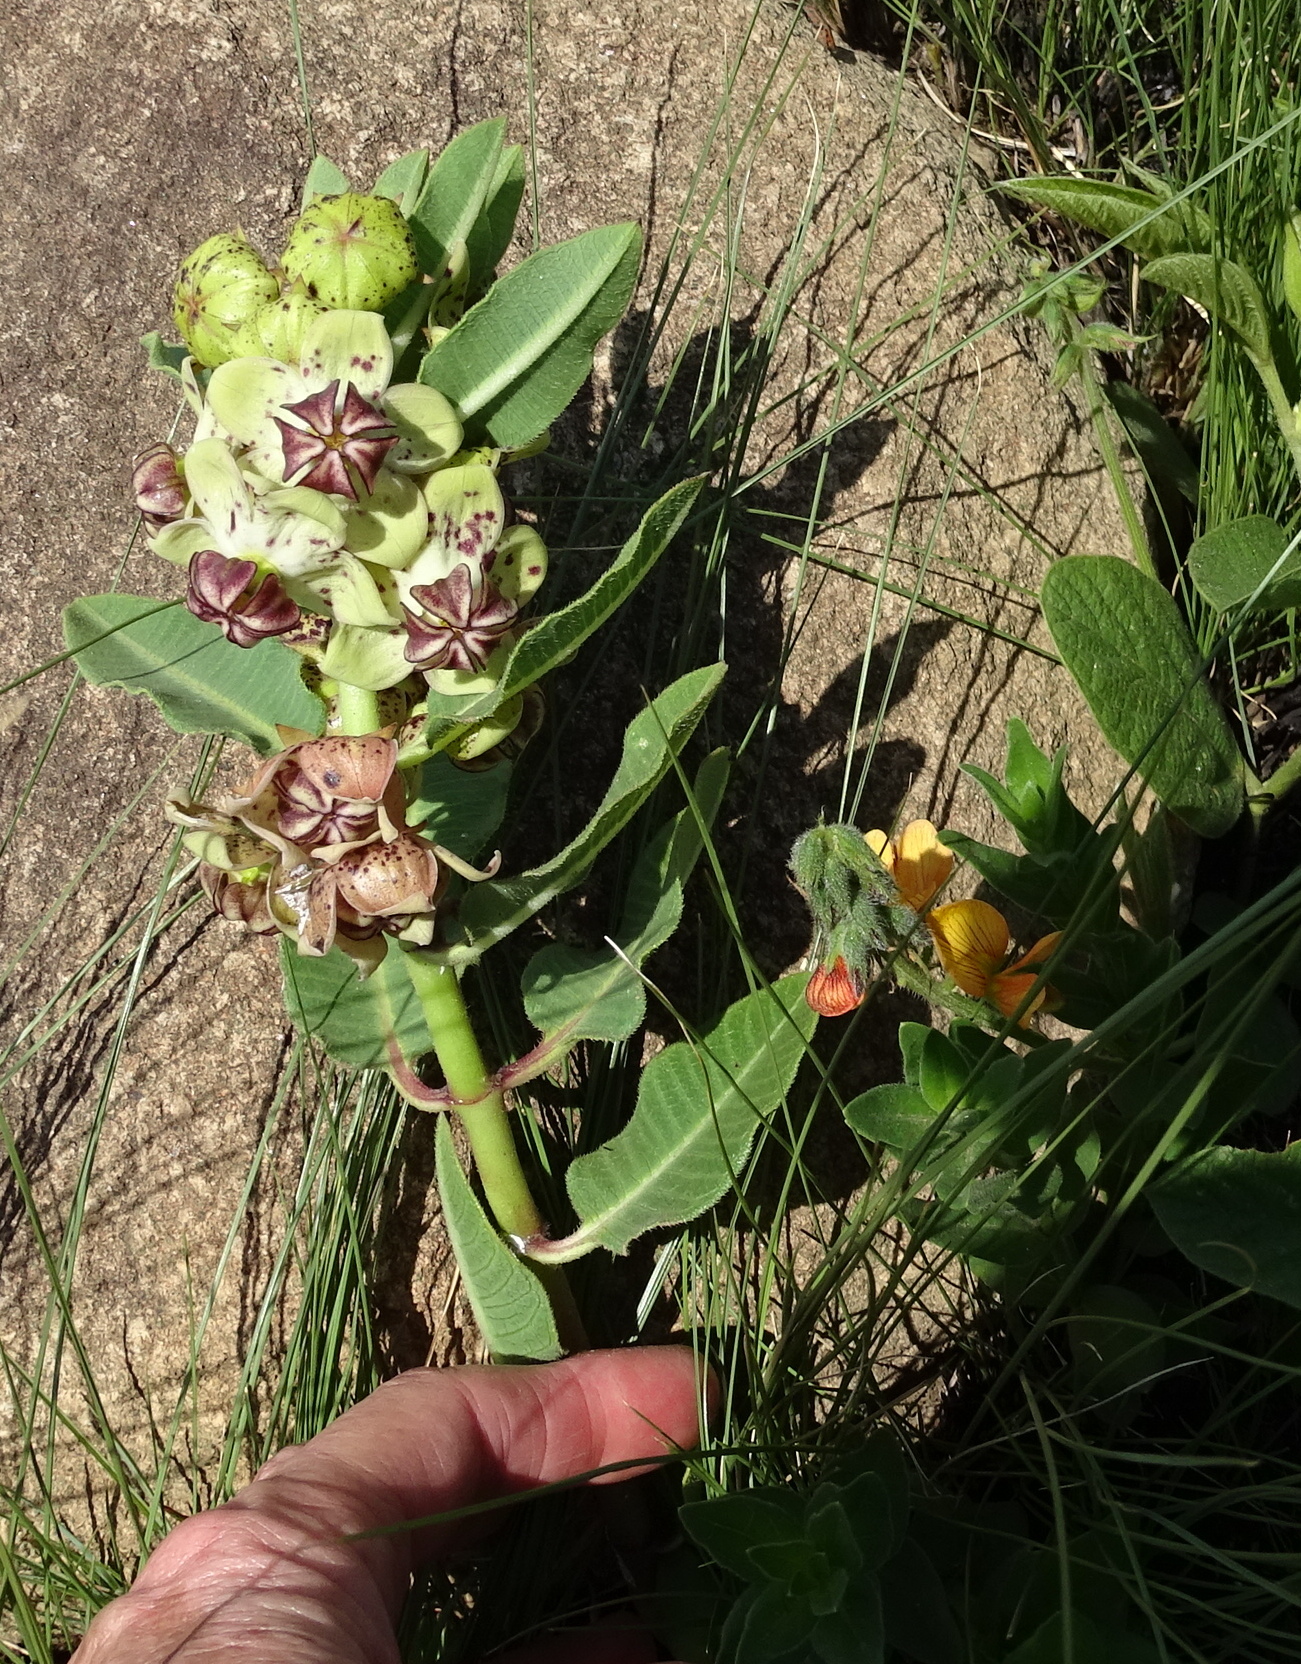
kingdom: Plantae
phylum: Tracheophyta
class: Magnoliopsida
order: Gentianales
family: Apocynaceae
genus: Pachycarpus
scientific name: Pachycarpus natalensis
